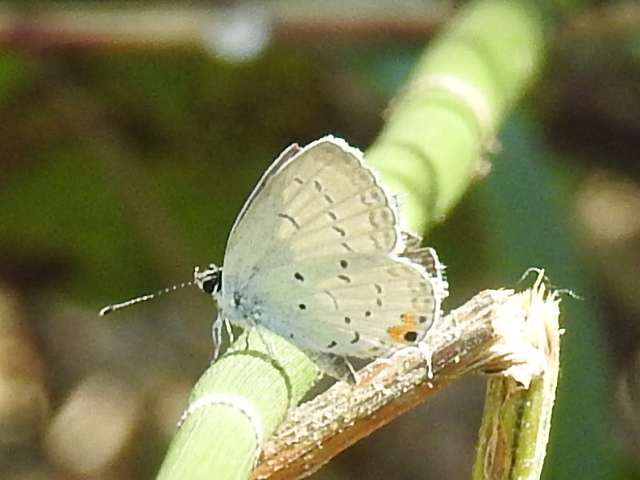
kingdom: Animalia
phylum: Arthropoda
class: Insecta
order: Lepidoptera
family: Lycaenidae
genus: Elkalyce
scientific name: Elkalyce comyntas
